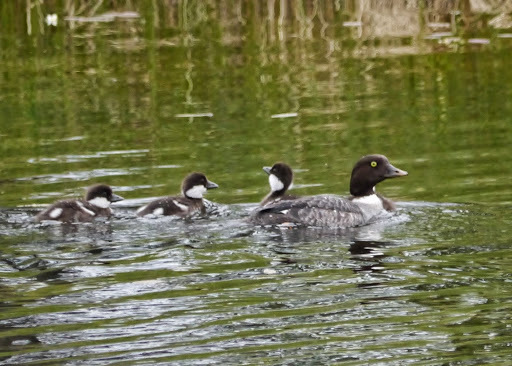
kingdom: Animalia
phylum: Chordata
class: Aves
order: Anseriformes
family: Anatidae
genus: Bucephala
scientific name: Bucephala clangula
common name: Common goldeneye
